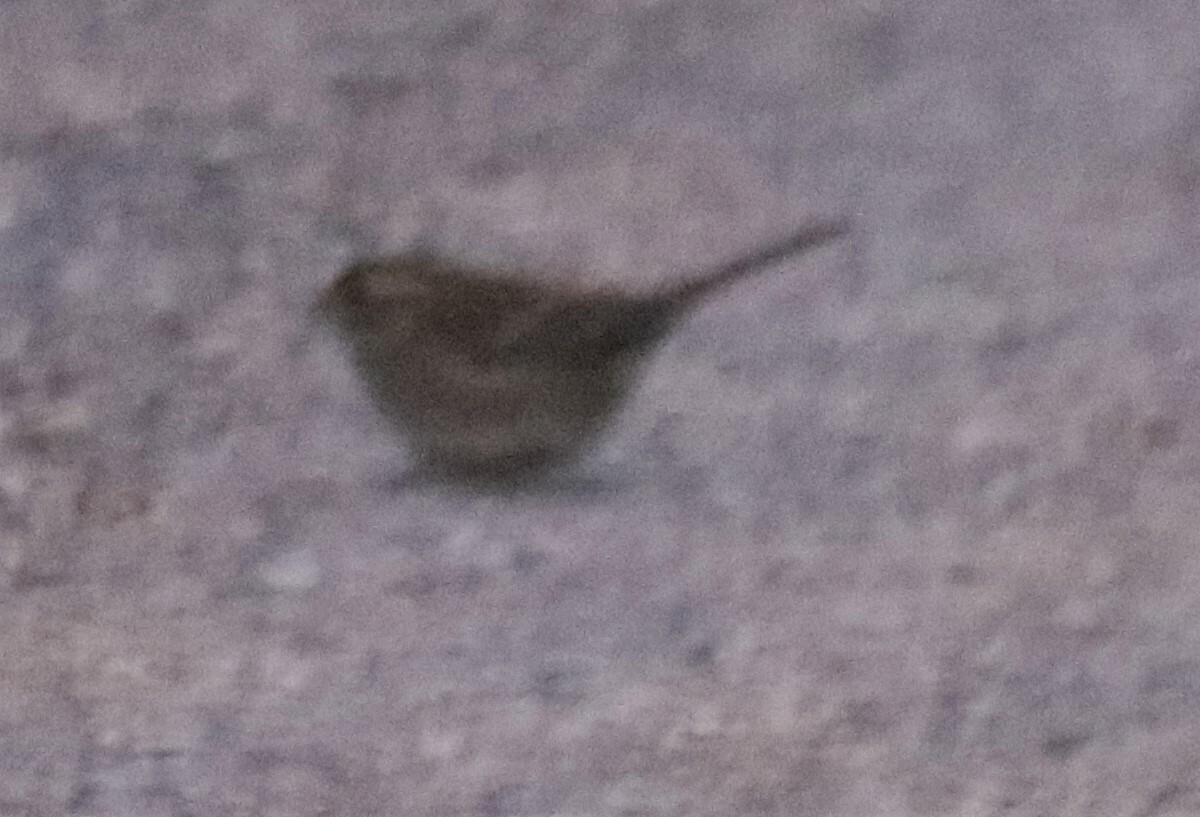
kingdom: Animalia
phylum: Chordata
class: Aves
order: Passeriformes
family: Passerellidae
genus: Zonotrichia
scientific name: Zonotrichia albicollis
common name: White-throated sparrow
